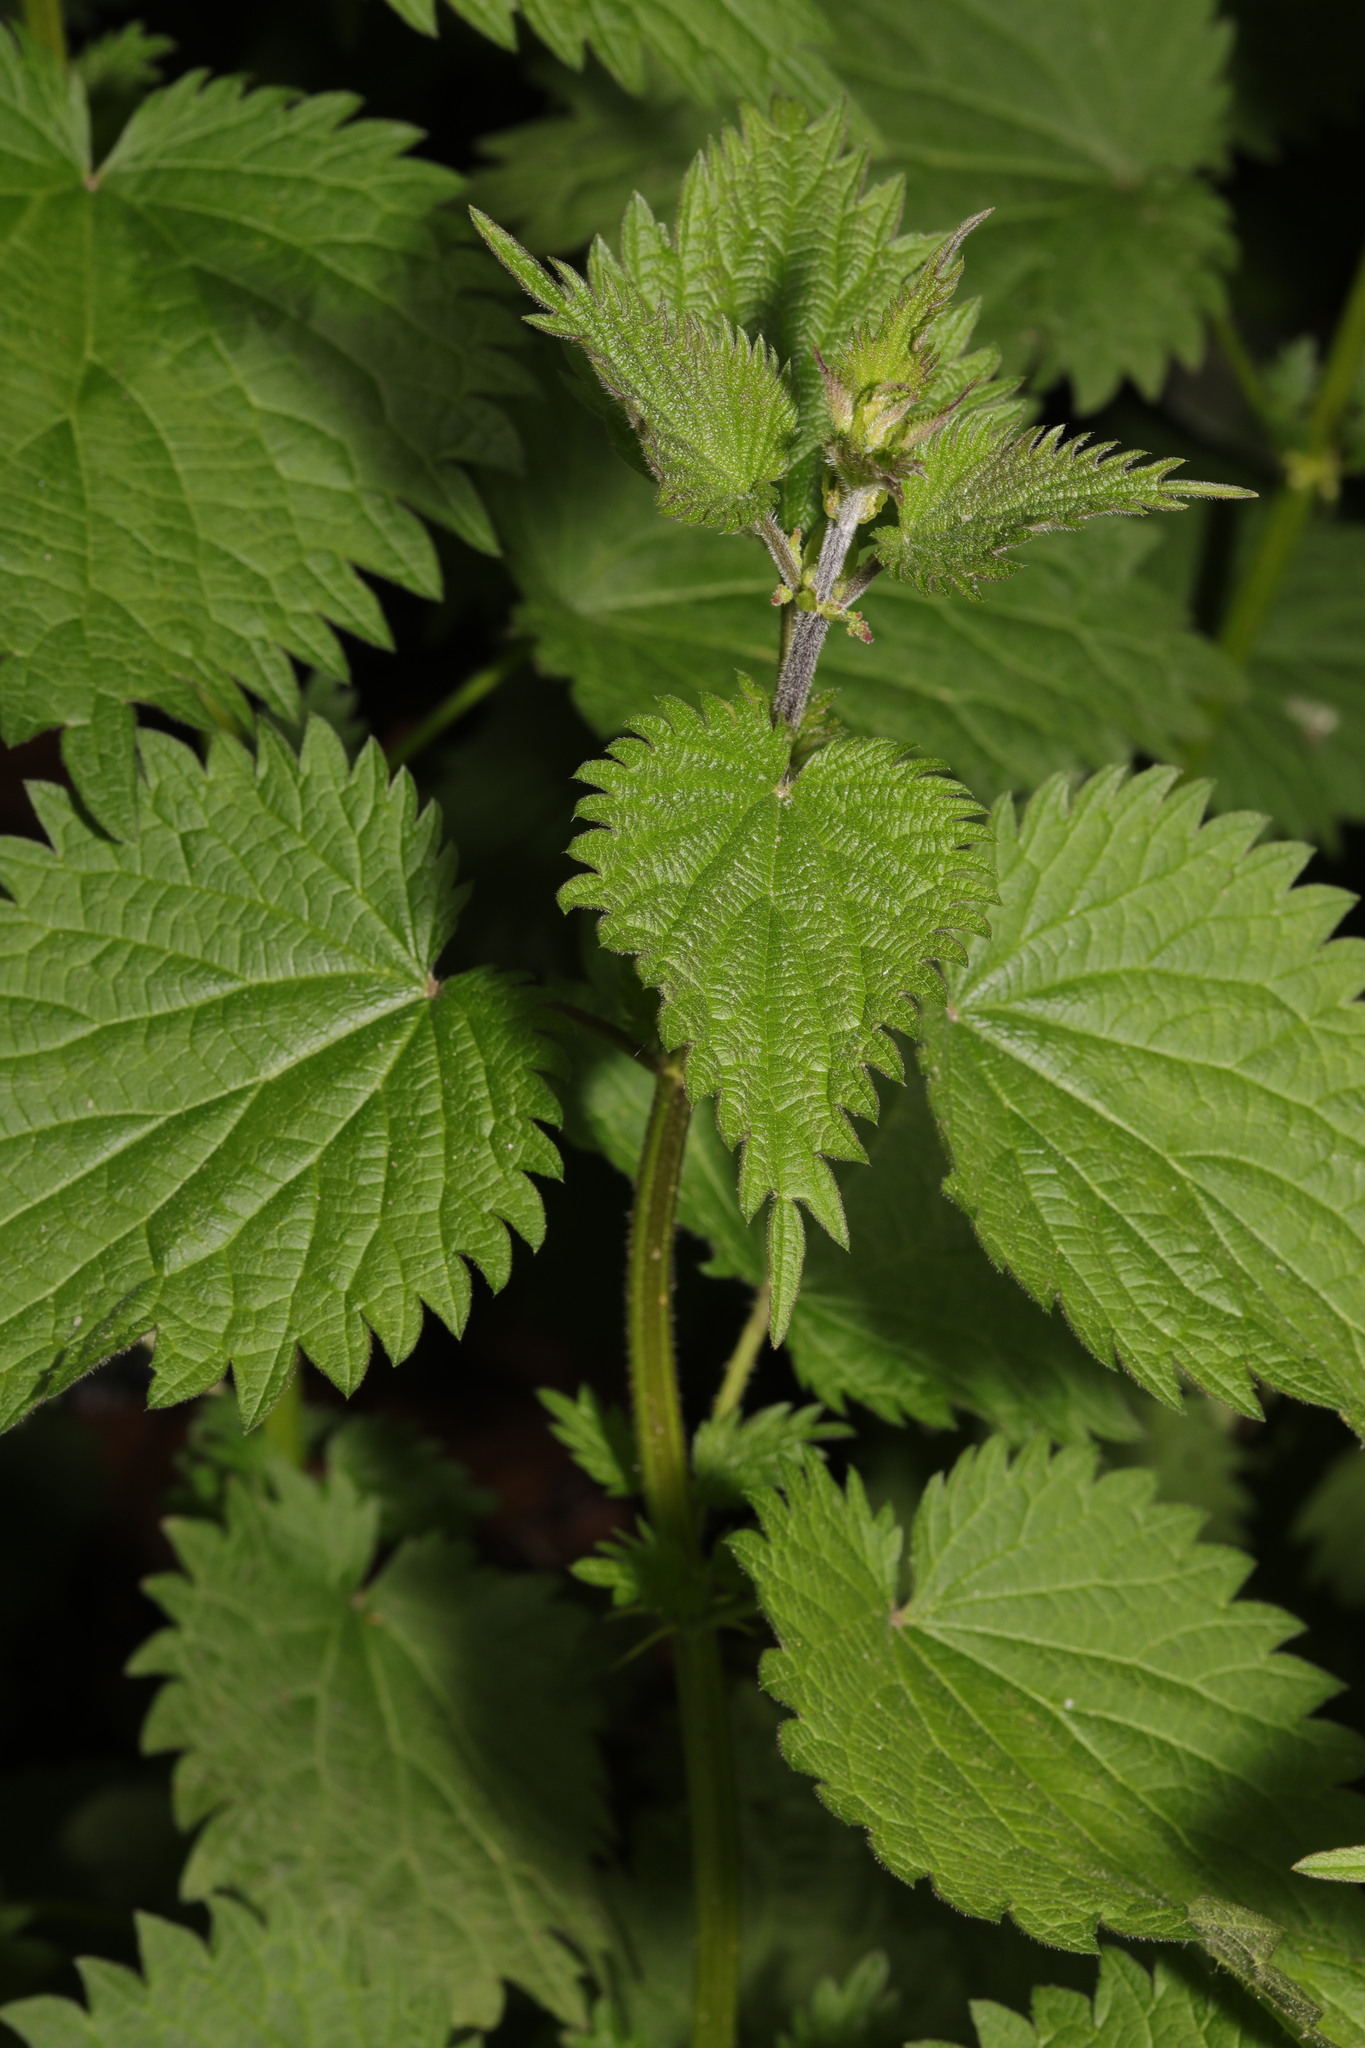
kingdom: Plantae
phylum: Tracheophyta
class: Magnoliopsida
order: Rosales
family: Urticaceae
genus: Urtica
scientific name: Urtica dioica
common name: Common nettle
